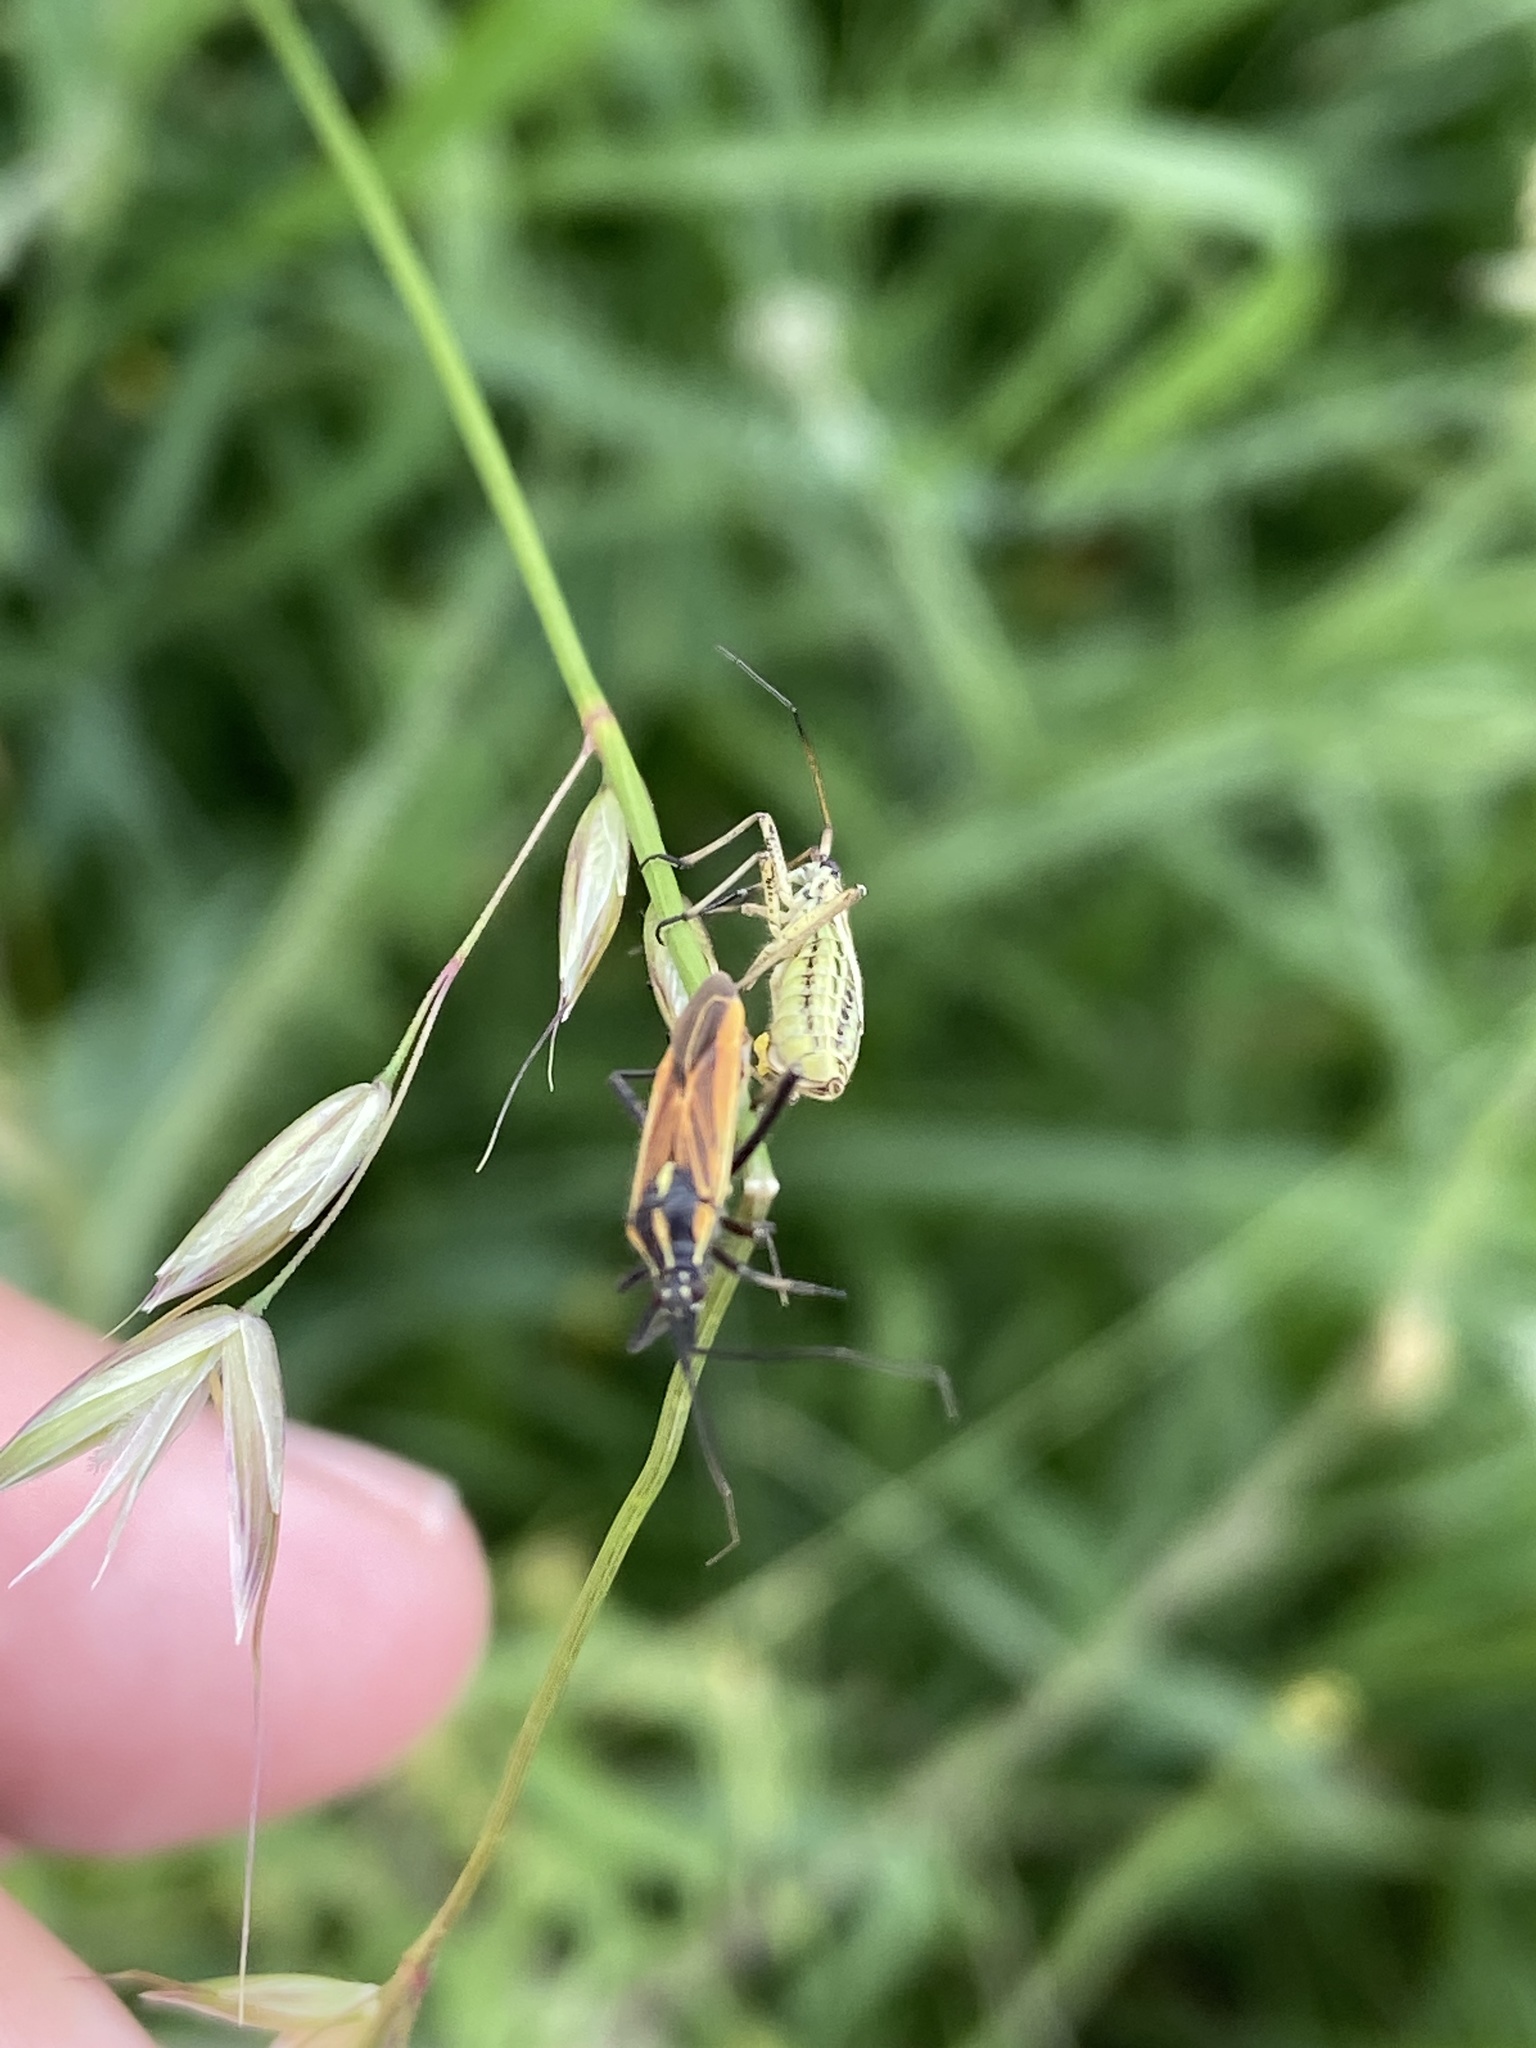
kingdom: Animalia
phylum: Arthropoda
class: Insecta
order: Hemiptera
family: Miridae
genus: Leptopterna
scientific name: Leptopterna dolabrata
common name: Meadow plant bug
